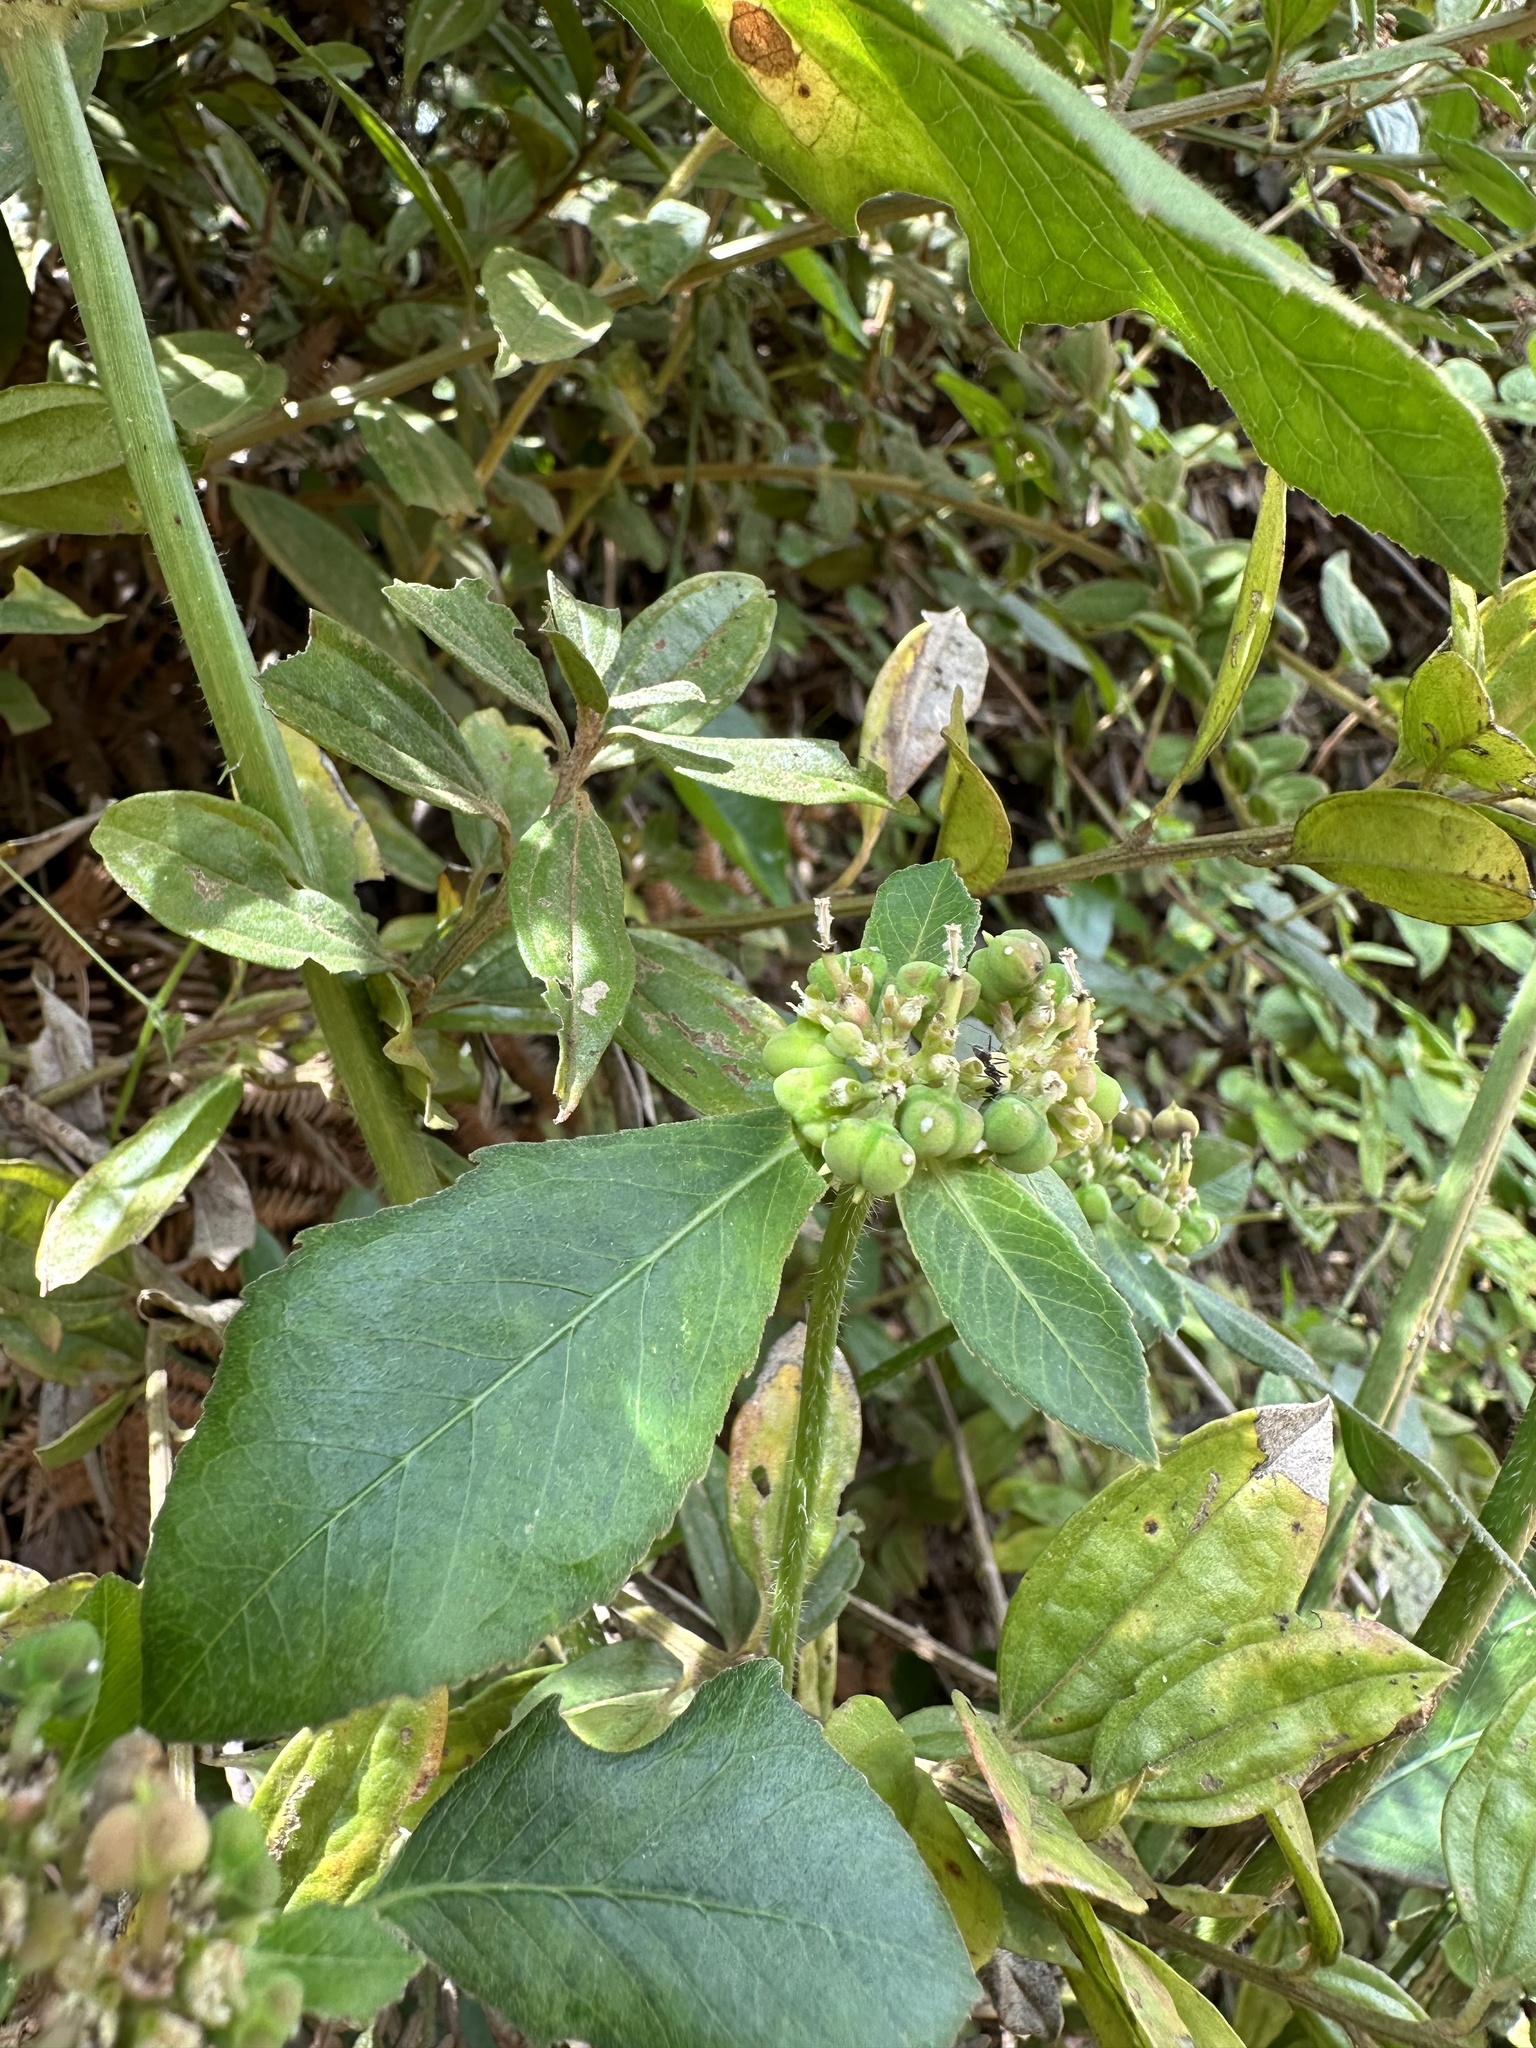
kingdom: Plantae
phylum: Tracheophyta
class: Magnoliopsida
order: Malpighiales
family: Euphorbiaceae
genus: Euphorbia
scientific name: Euphorbia heterophylla
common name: Mexican fireplant
